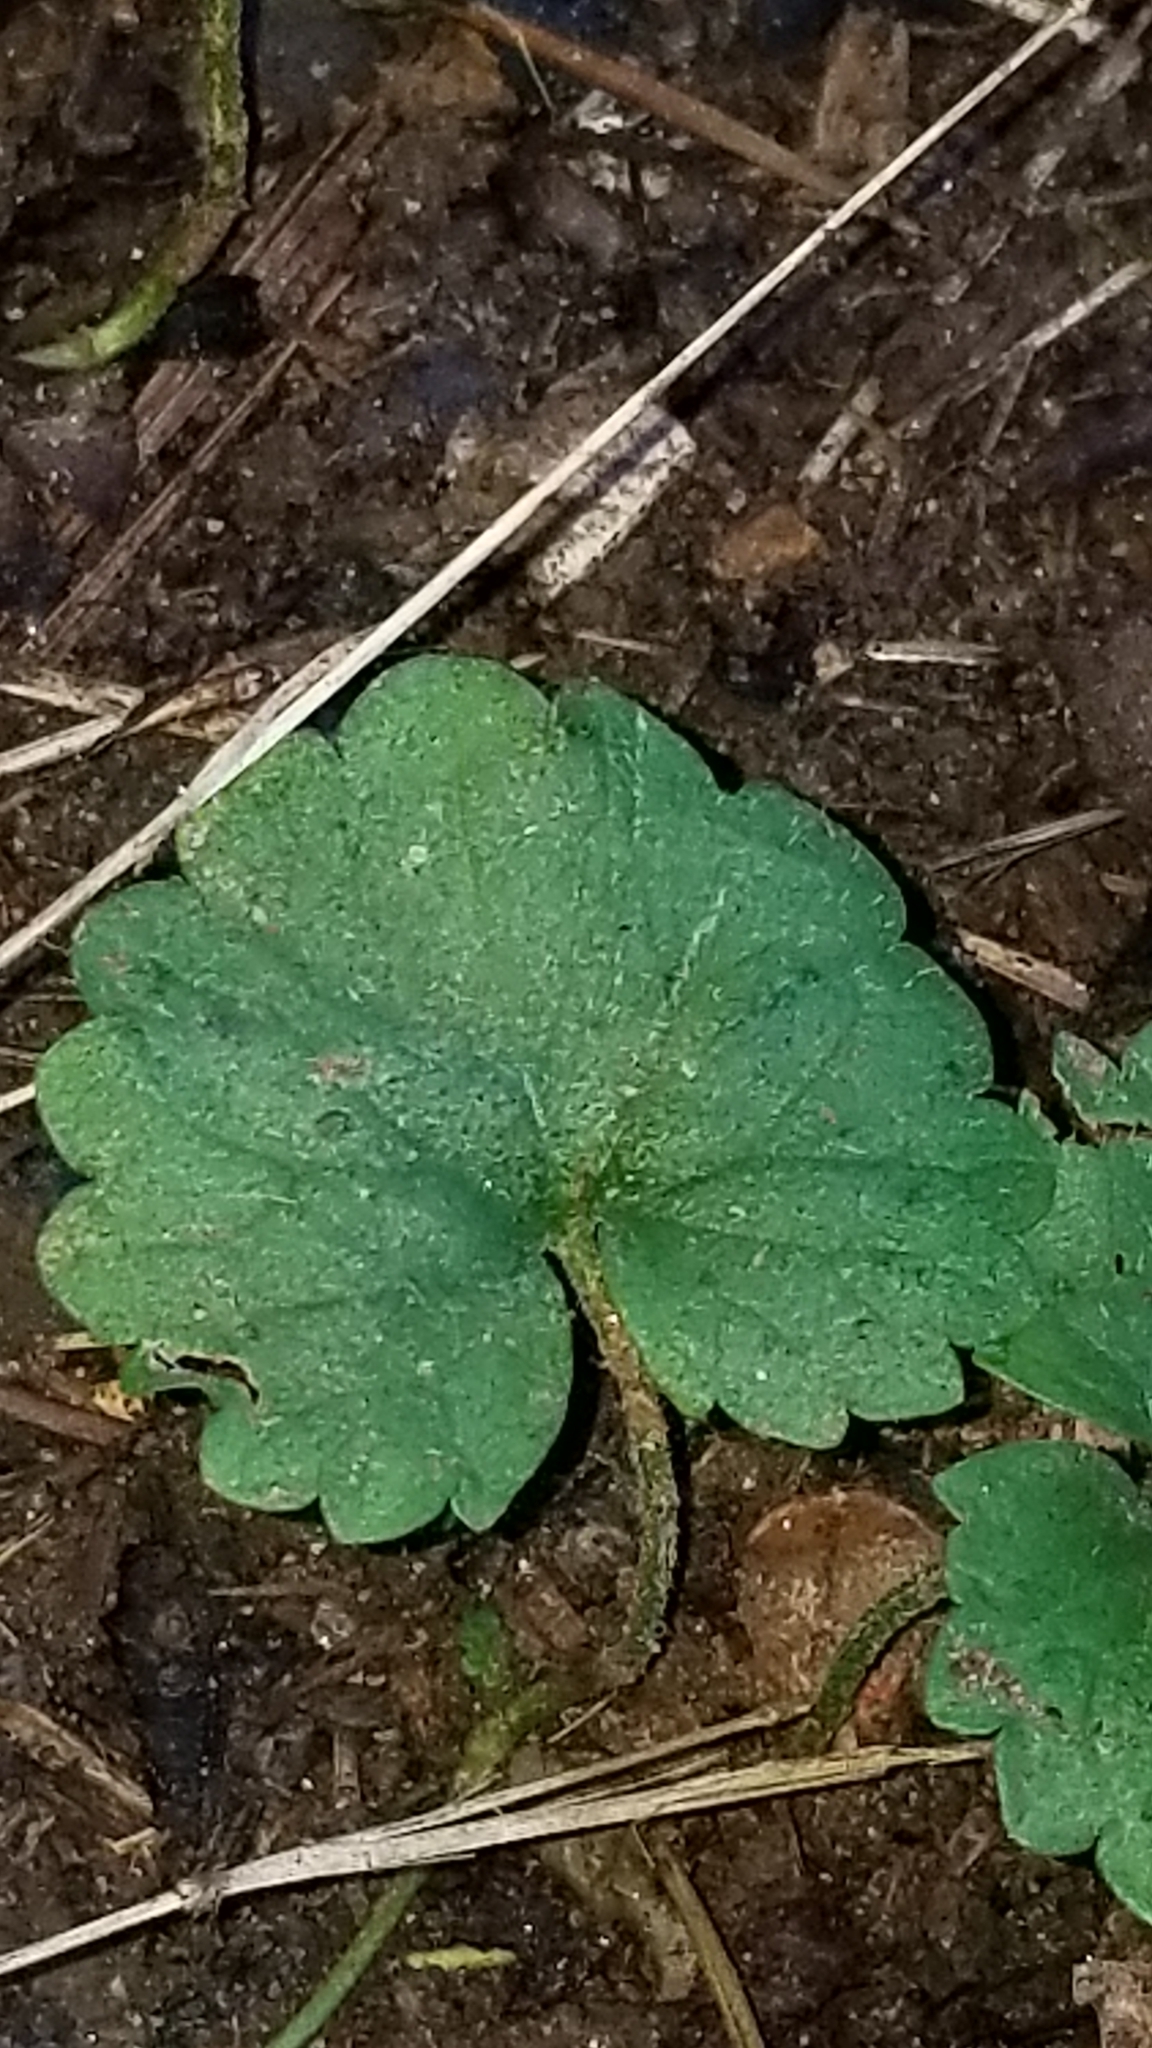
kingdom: Plantae
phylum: Tracheophyta
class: Magnoliopsida
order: Lamiales
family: Lamiaceae
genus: Glechoma
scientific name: Glechoma hederacea
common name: Ground ivy
